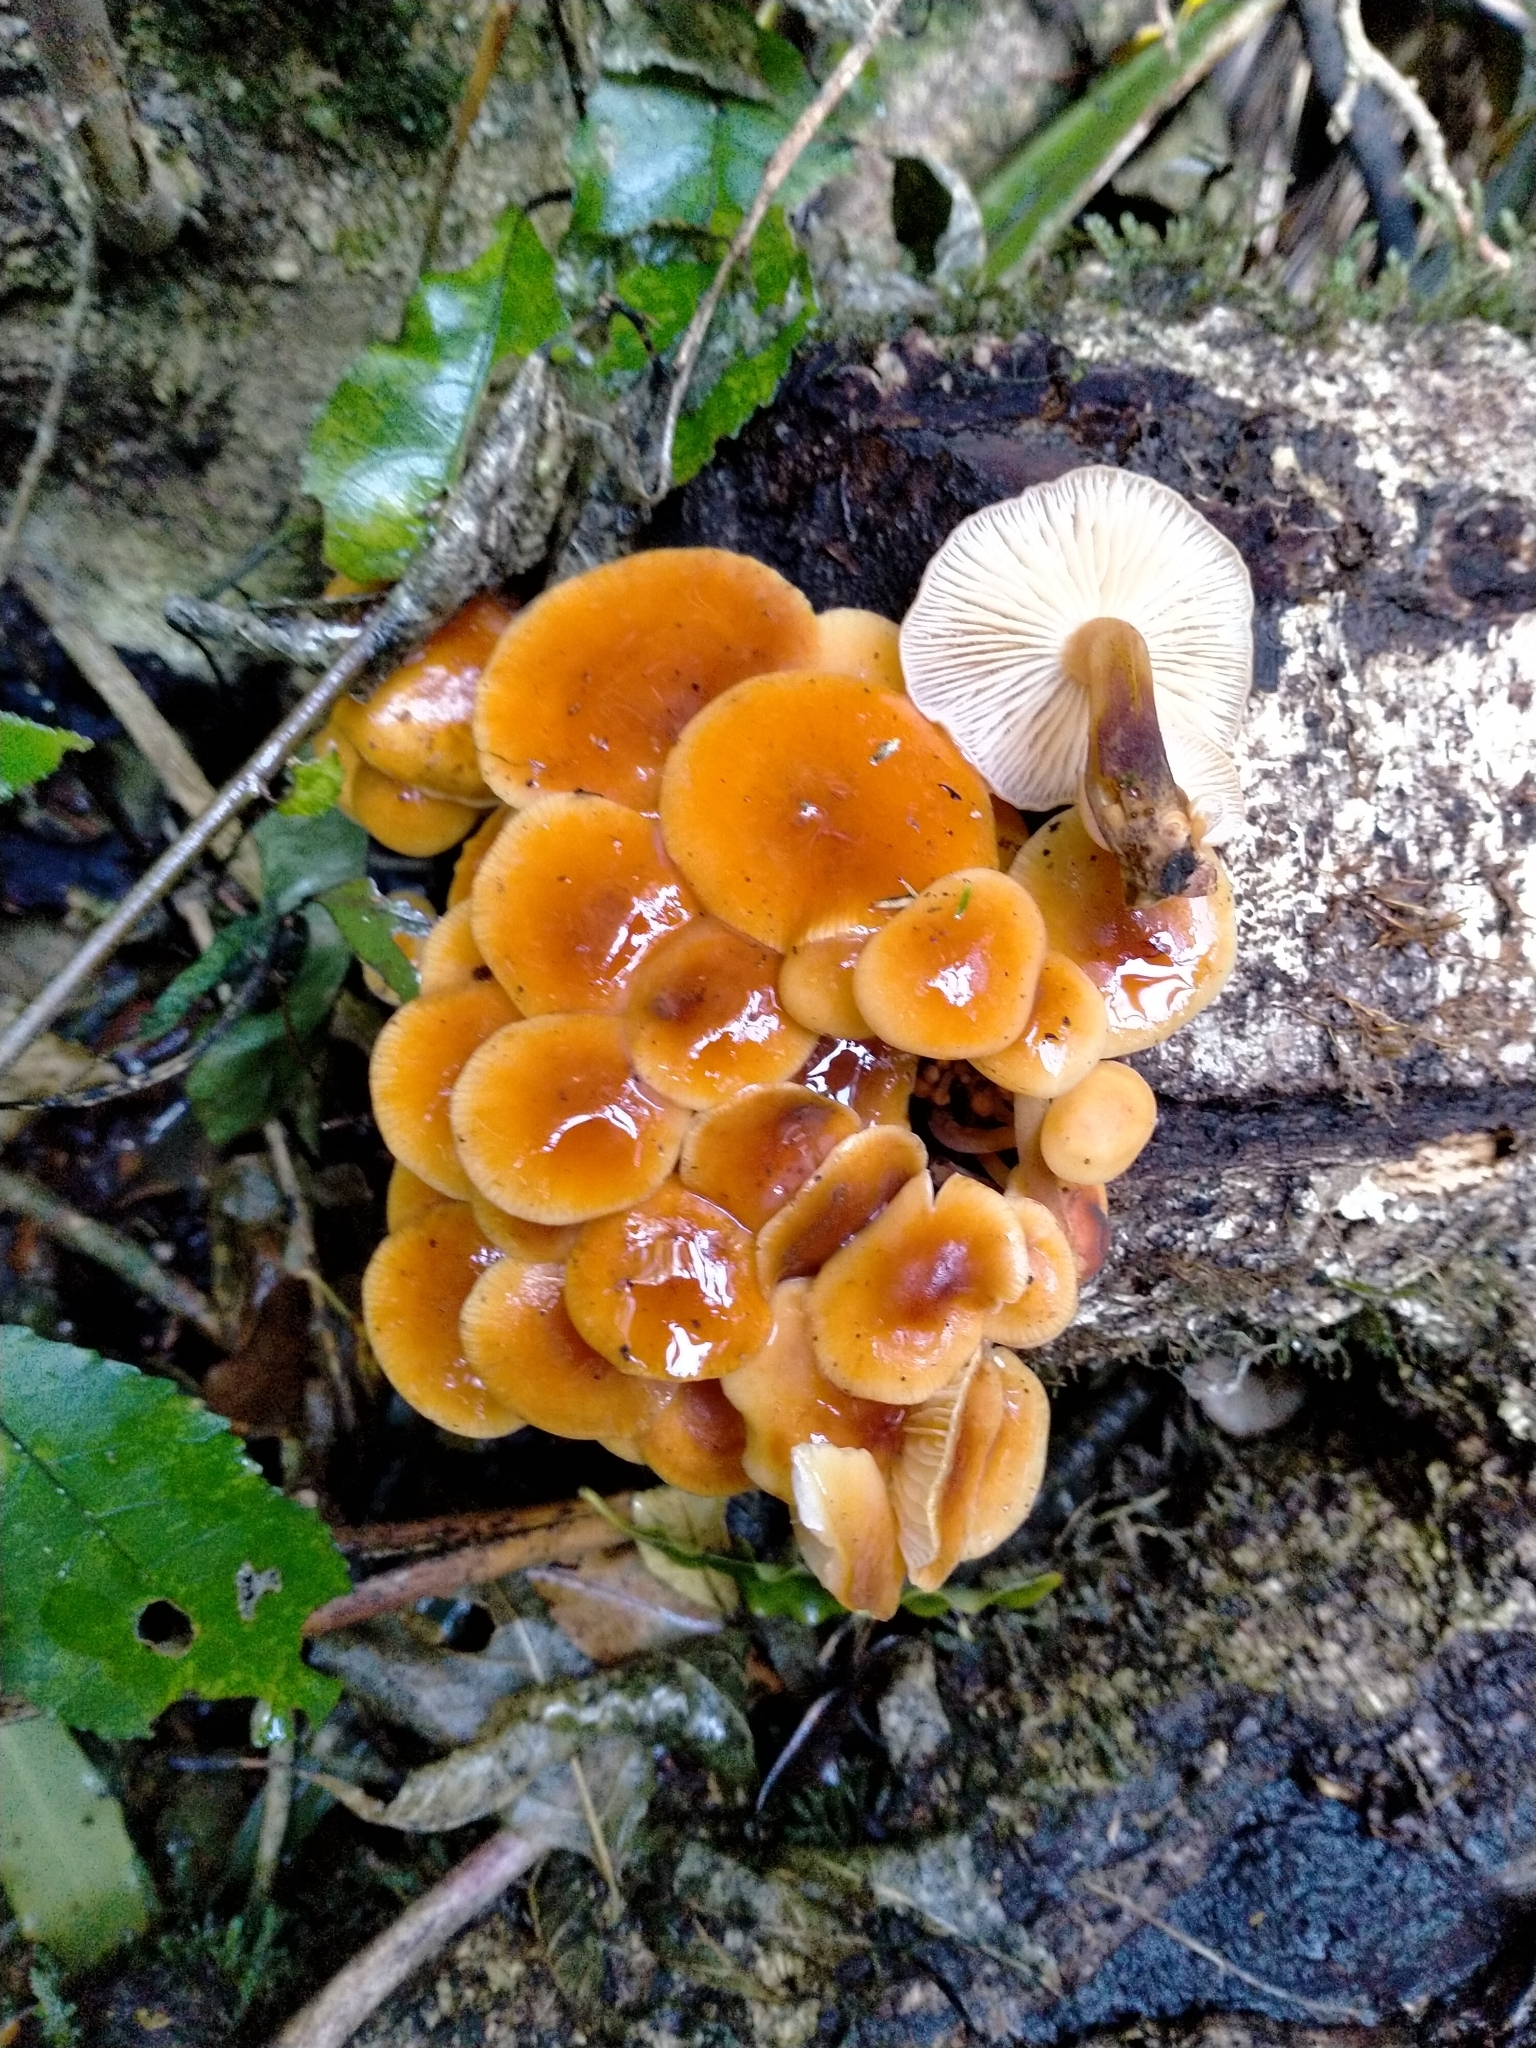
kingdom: Fungi
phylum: Basidiomycota
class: Agaricomycetes
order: Agaricales
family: Physalacriaceae
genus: Flammulina
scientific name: Flammulina velutipes
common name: Velvet shank
